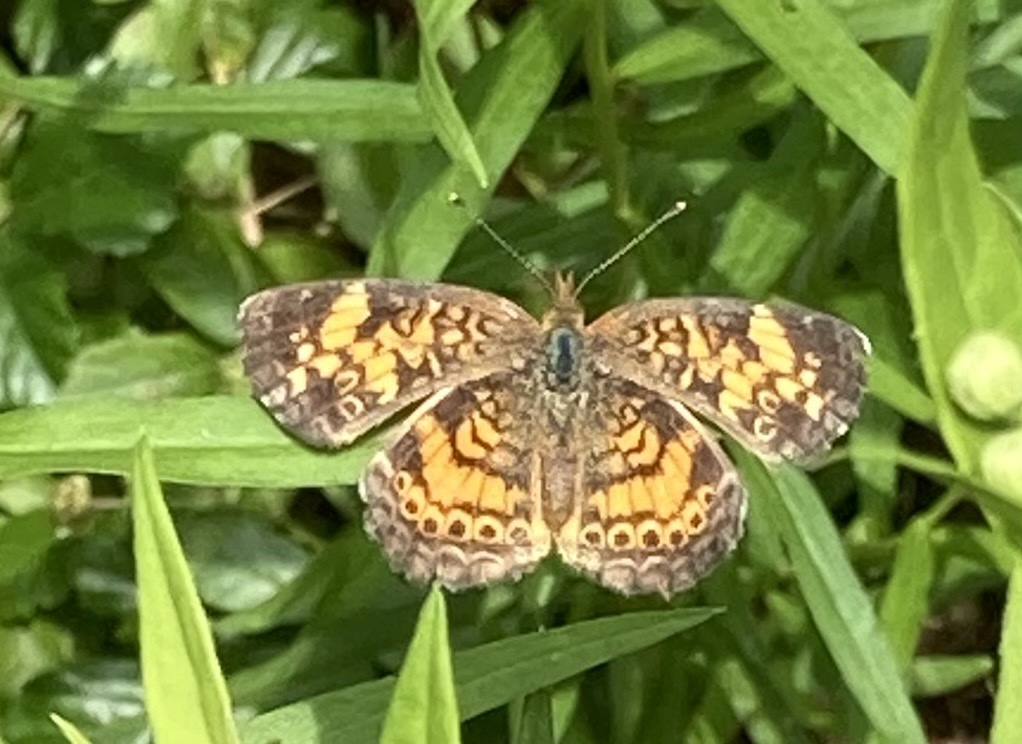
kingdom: Animalia
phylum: Arthropoda
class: Insecta
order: Lepidoptera
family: Nymphalidae
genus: Phyciodes
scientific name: Phyciodes tharos
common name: Pearl crescent
